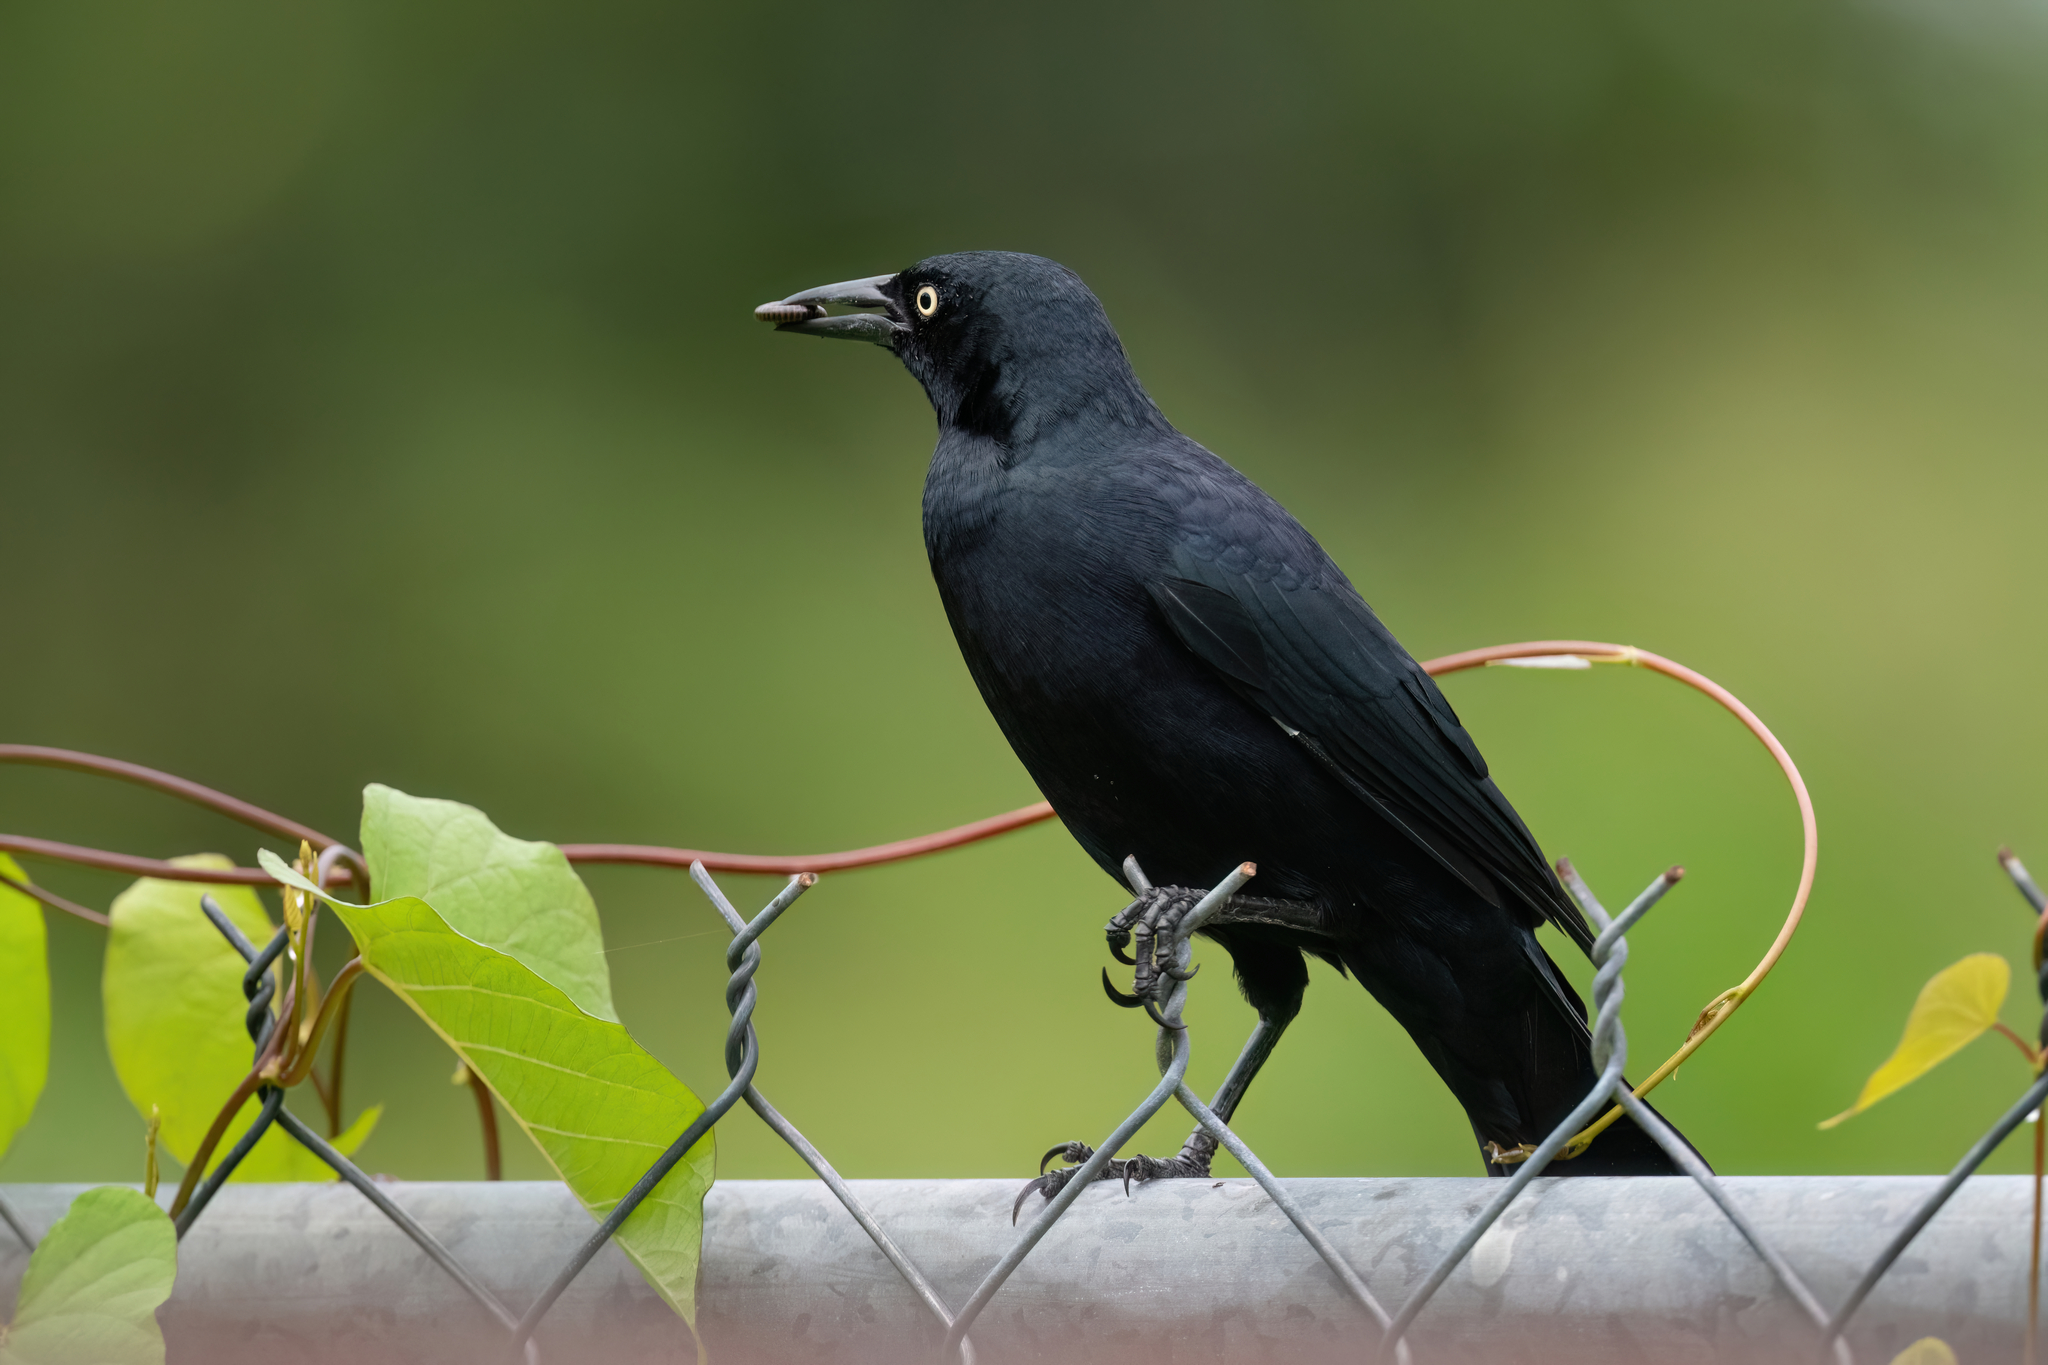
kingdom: Animalia
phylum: Chordata
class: Aves
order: Passeriformes
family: Icteridae
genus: Quiscalus
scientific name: Quiscalus niger
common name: Greater antillean grackle
